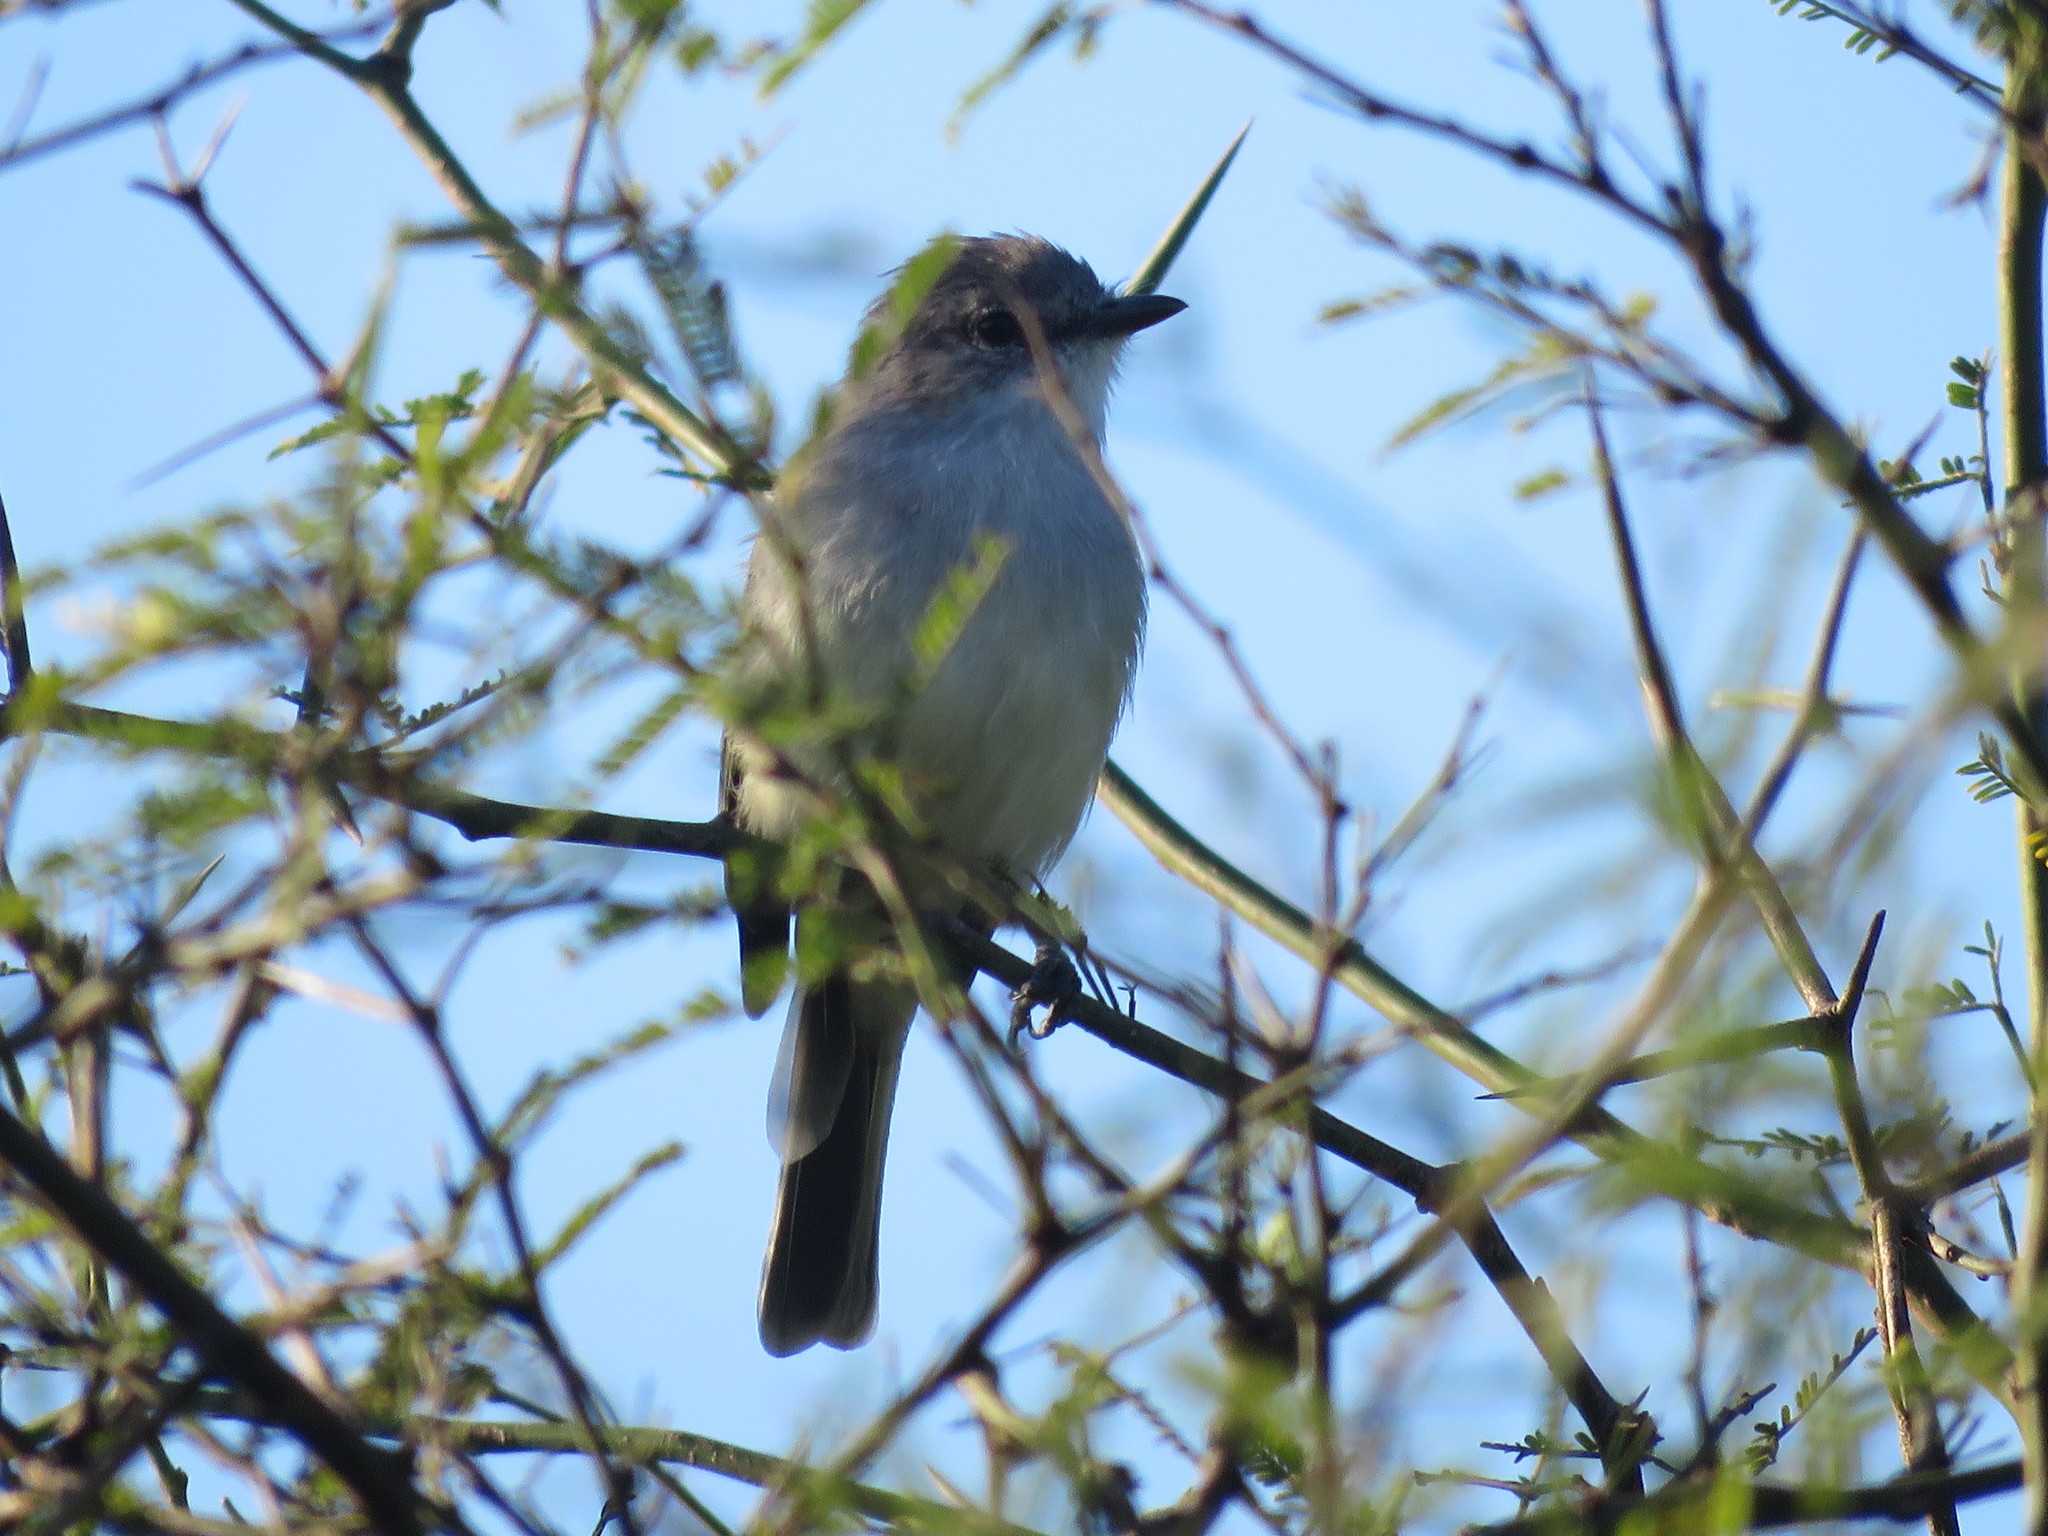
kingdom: Animalia
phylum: Chordata
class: Aves
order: Passeriformes
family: Tyrannidae
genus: Suiriri
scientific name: Suiriri suiriri
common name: Suiriri flycatcher
